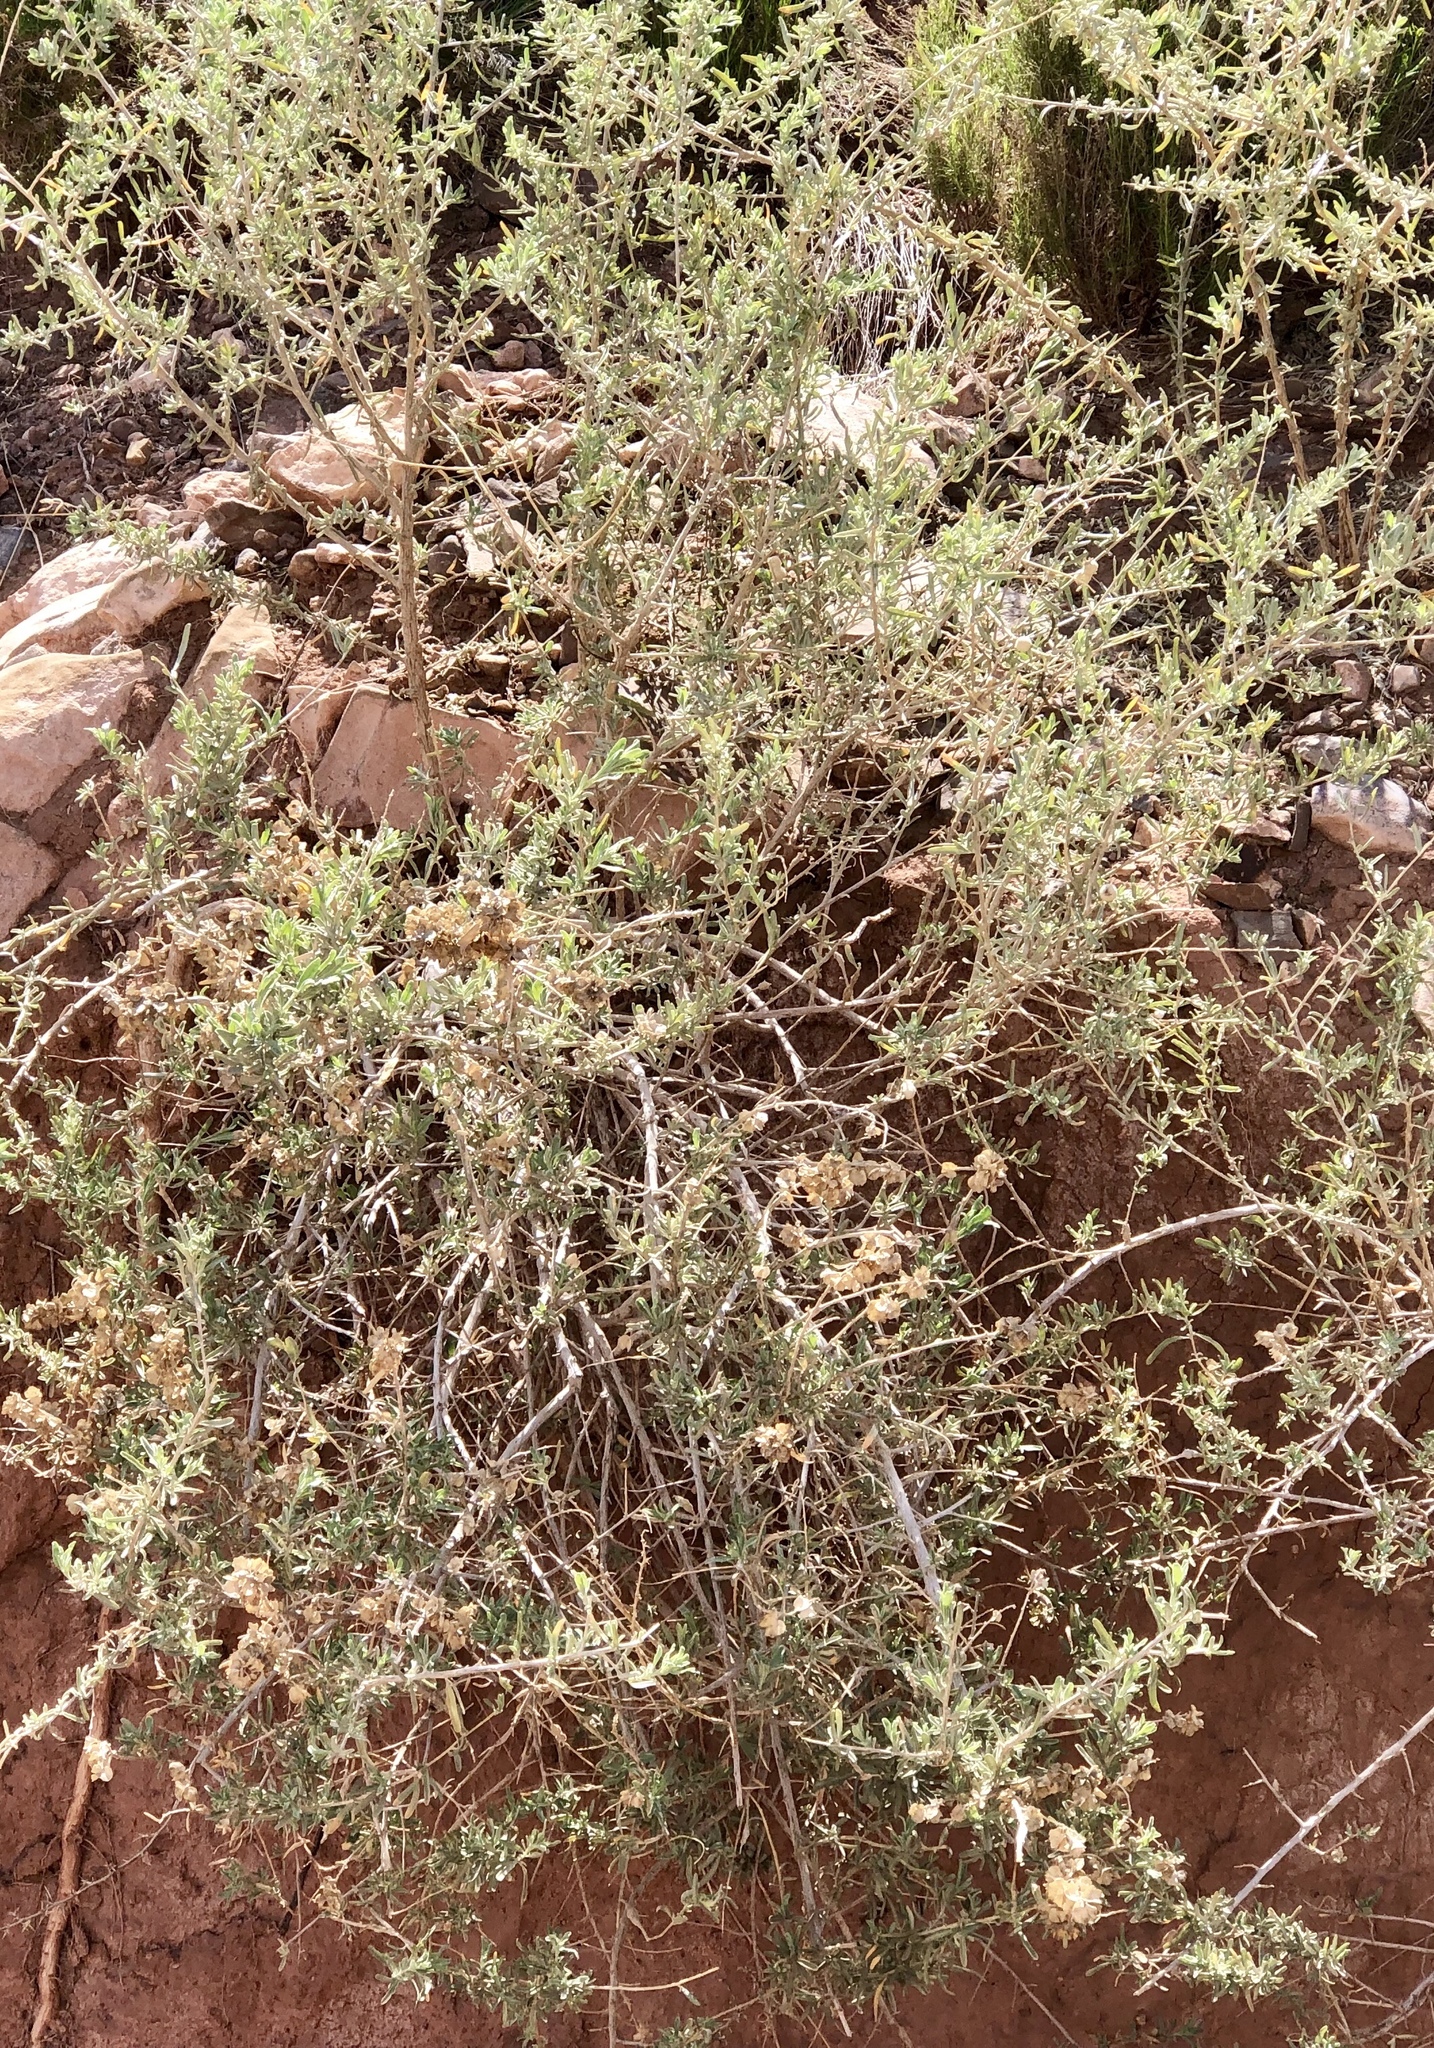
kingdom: Plantae
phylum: Tracheophyta
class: Magnoliopsida
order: Caryophyllales
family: Amaranthaceae
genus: Atriplex
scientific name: Atriplex canescens
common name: Four-wing saltbush
